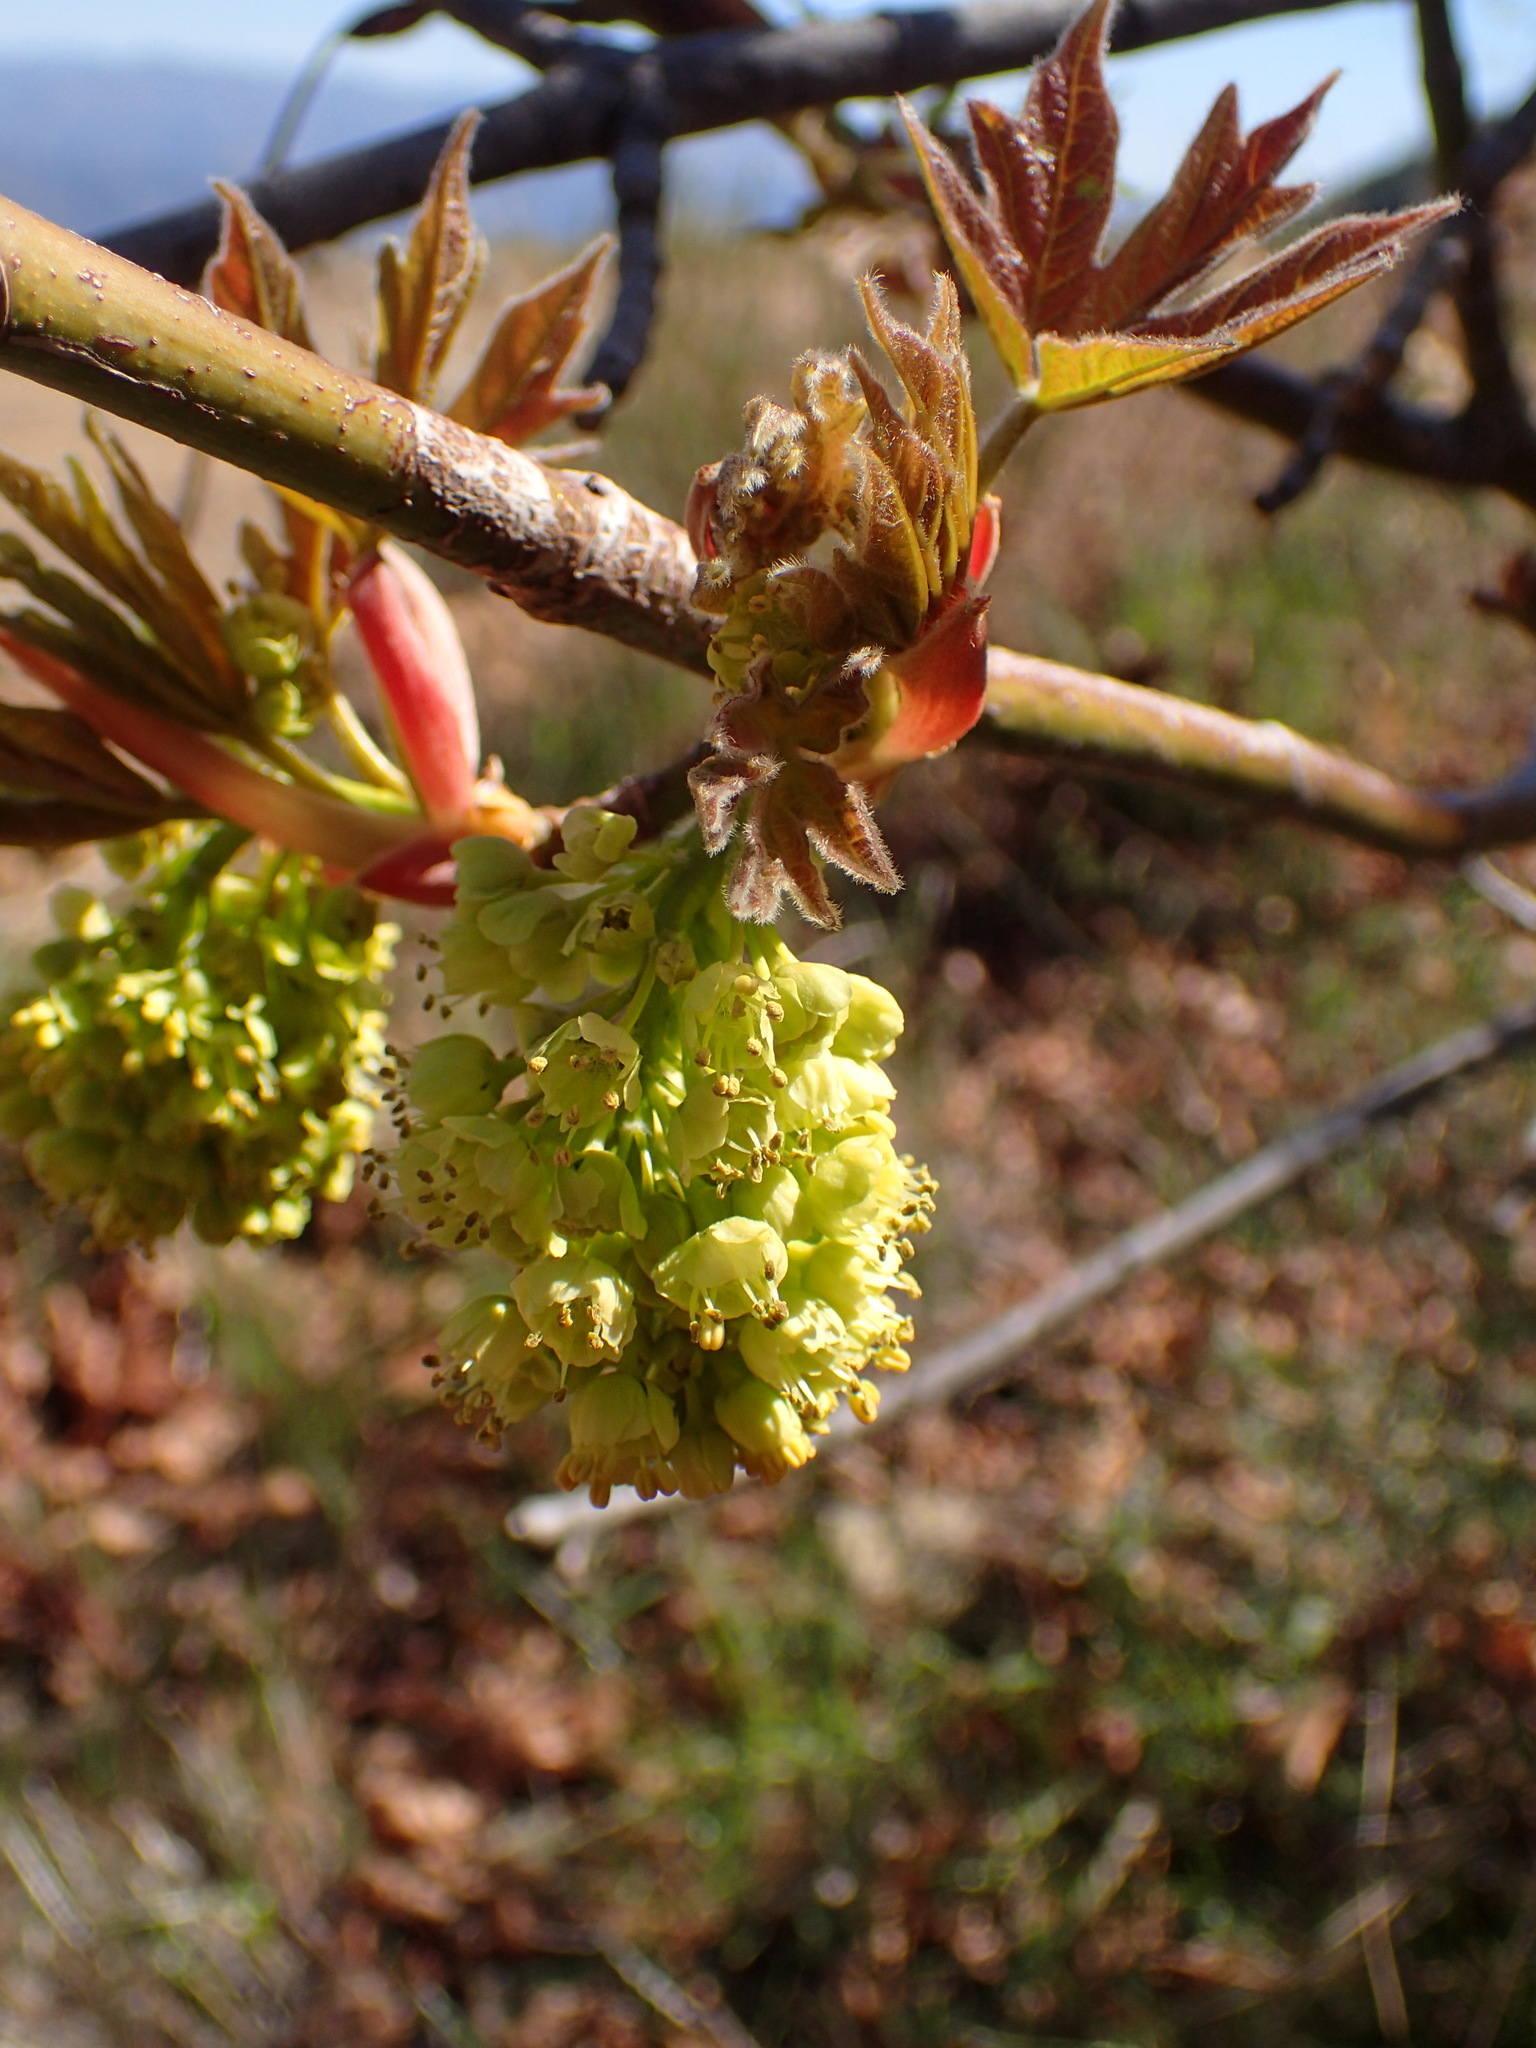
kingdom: Plantae
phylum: Tracheophyta
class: Magnoliopsida
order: Sapindales
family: Sapindaceae
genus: Acer
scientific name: Acer macrophyllum
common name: Oregon maple
